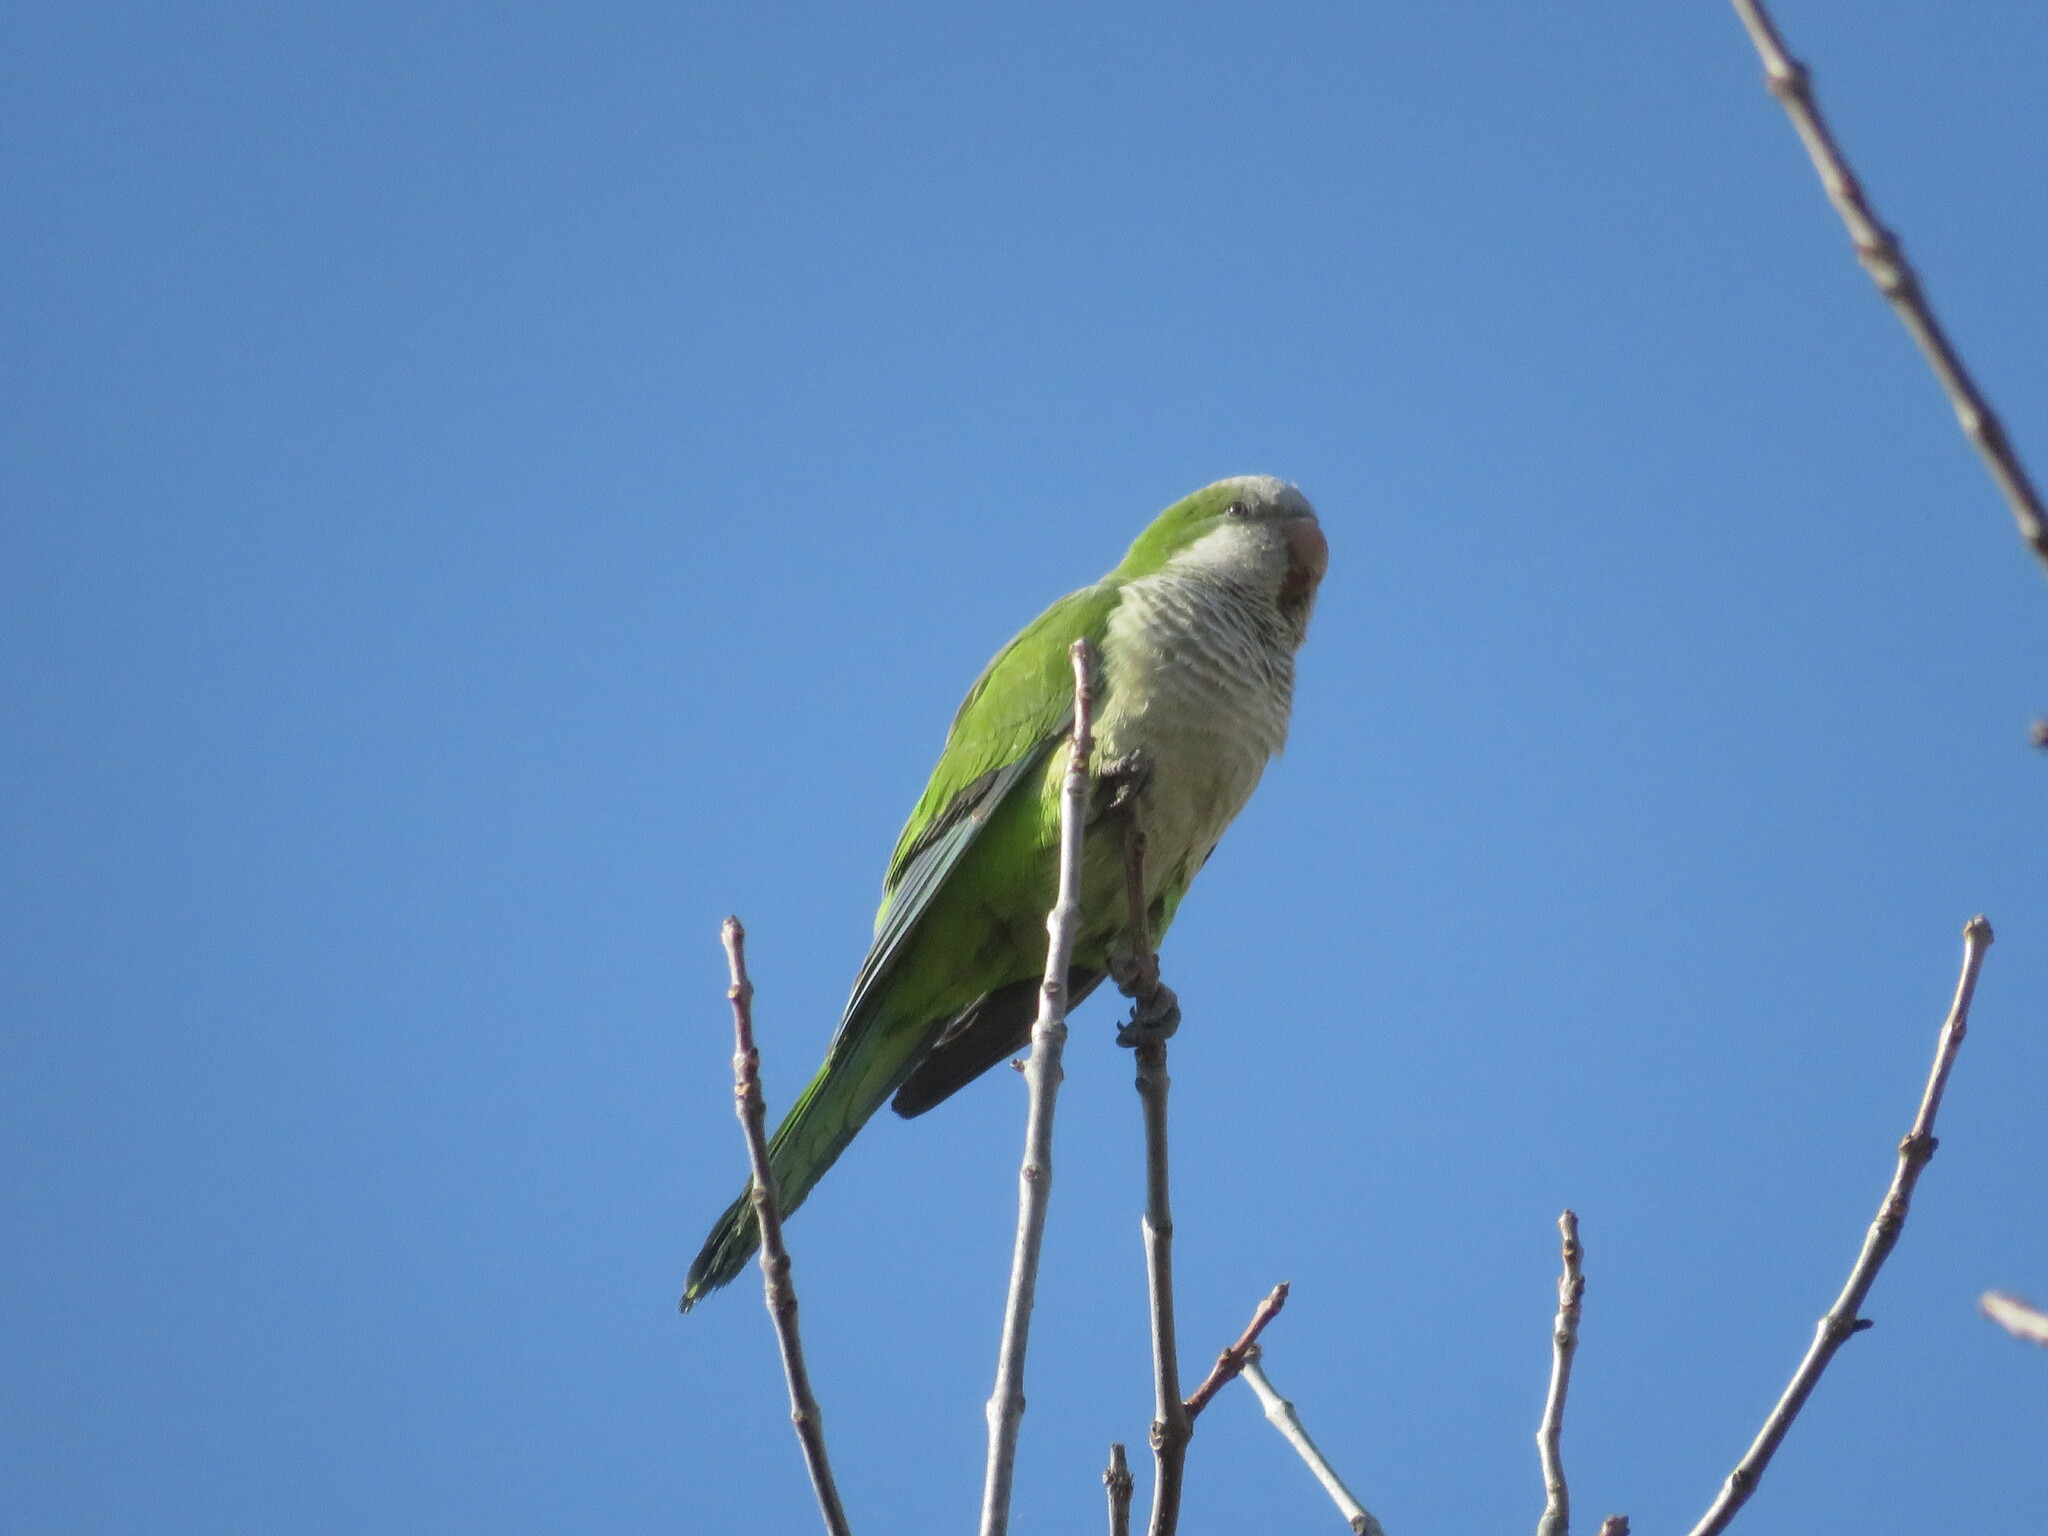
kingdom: Animalia
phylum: Chordata
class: Aves
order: Psittaciformes
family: Psittacidae
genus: Myiopsitta
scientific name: Myiopsitta monachus
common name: Monk parakeet
